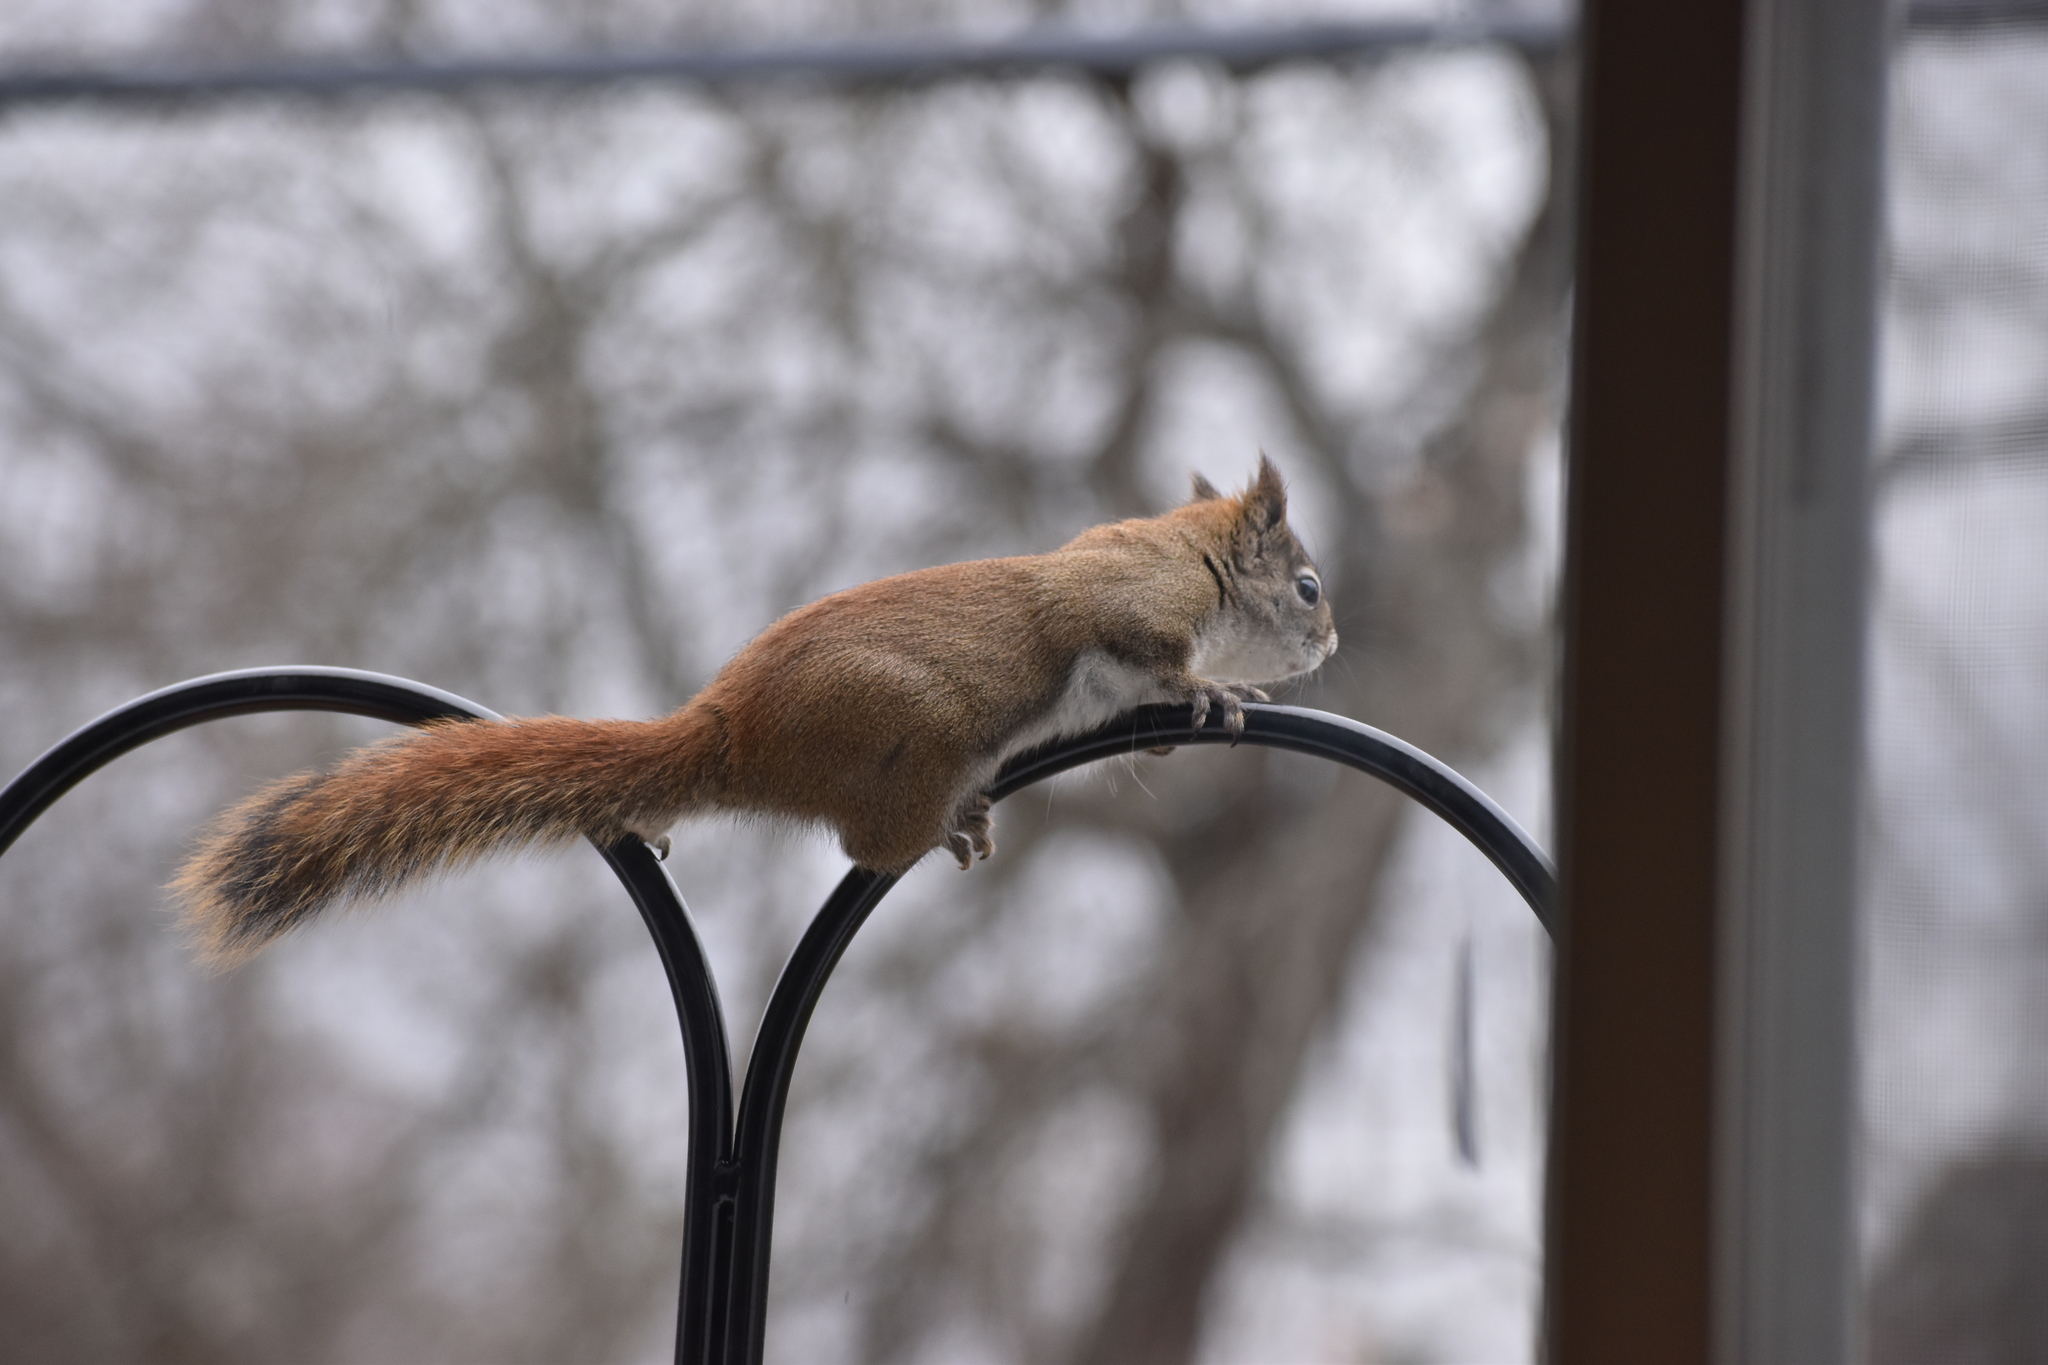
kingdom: Animalia
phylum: Chordata
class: Mammalia
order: Rodentia
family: Sciuridae
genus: Tamiasciurus
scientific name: Tamiasciurus hudsonicus
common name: Red squirrel
